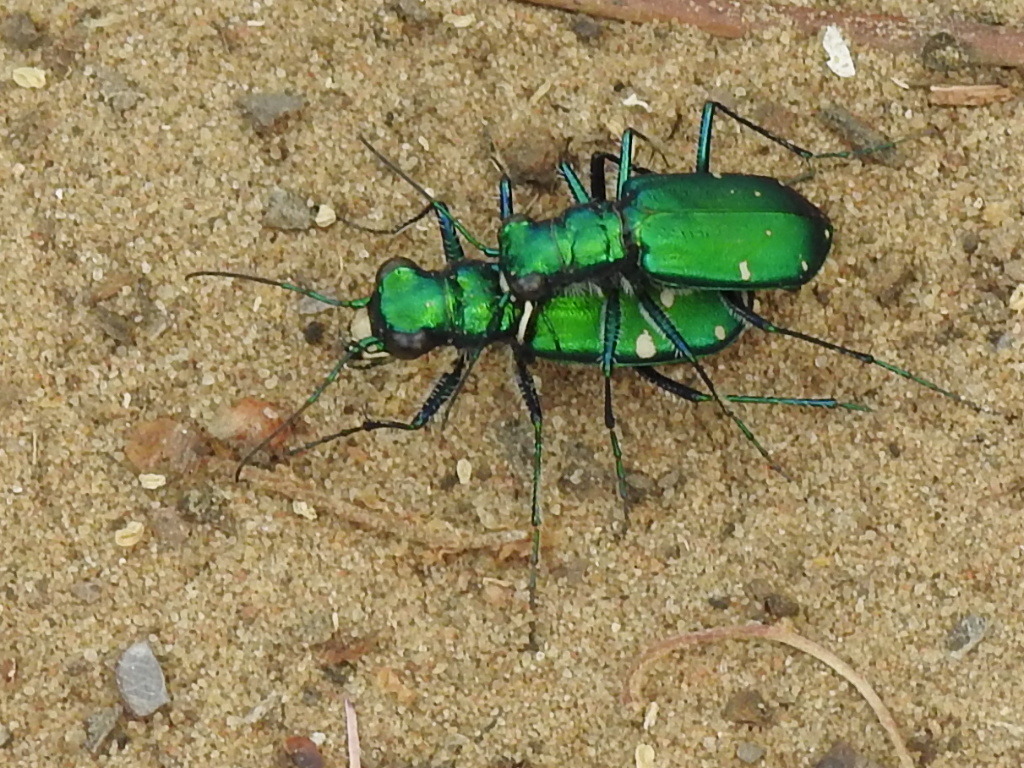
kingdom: Animalia
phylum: Arthropoda
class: Insecta
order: Coleoptera
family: Carabidae
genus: Cicindela
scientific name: Cicindela sexguttata
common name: Six-spotted tiger beetle
